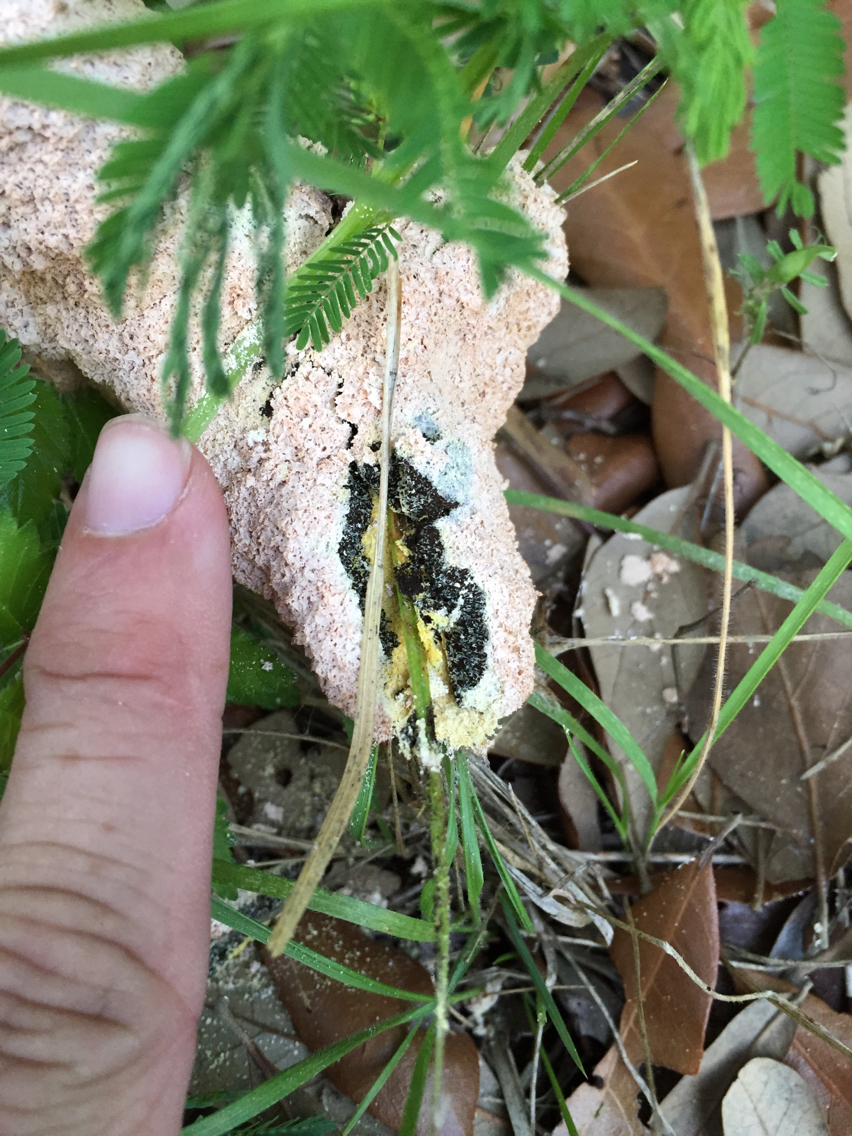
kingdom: Protozoa
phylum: Mycetozoa
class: Myxomycetes
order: Physarales
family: Physaraceae
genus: Fuligo
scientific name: Fuligo septica
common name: Dog vomit slime mold
